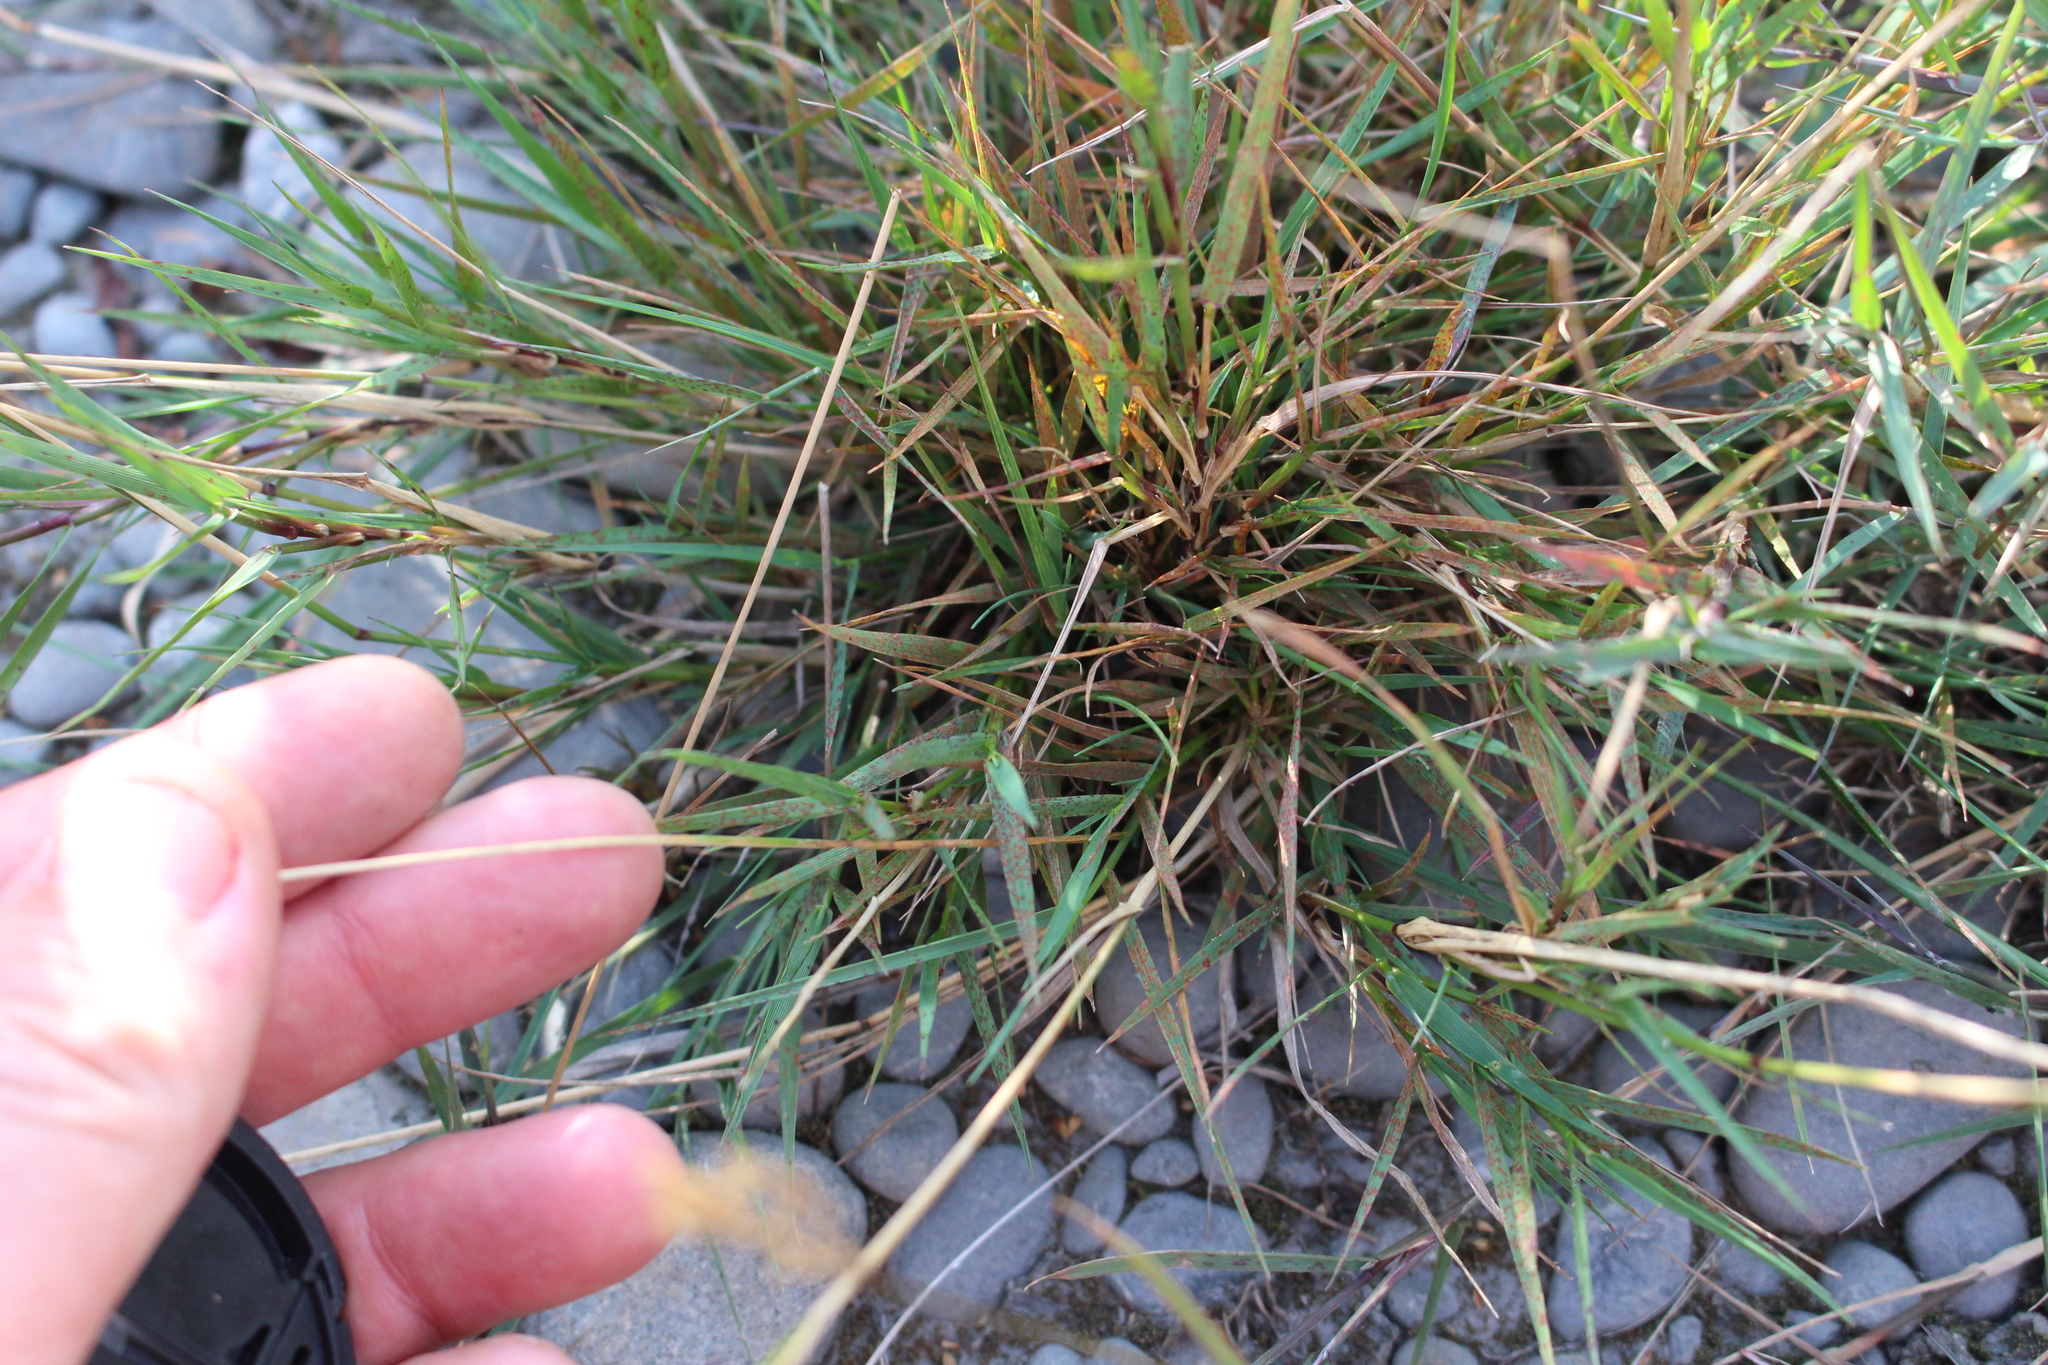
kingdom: Plantae
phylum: Tracheophyta
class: Liliopsida
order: Poales
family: Poaceae
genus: Agrostis
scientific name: Agrostis stolonifera
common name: Creeping bentgrass
